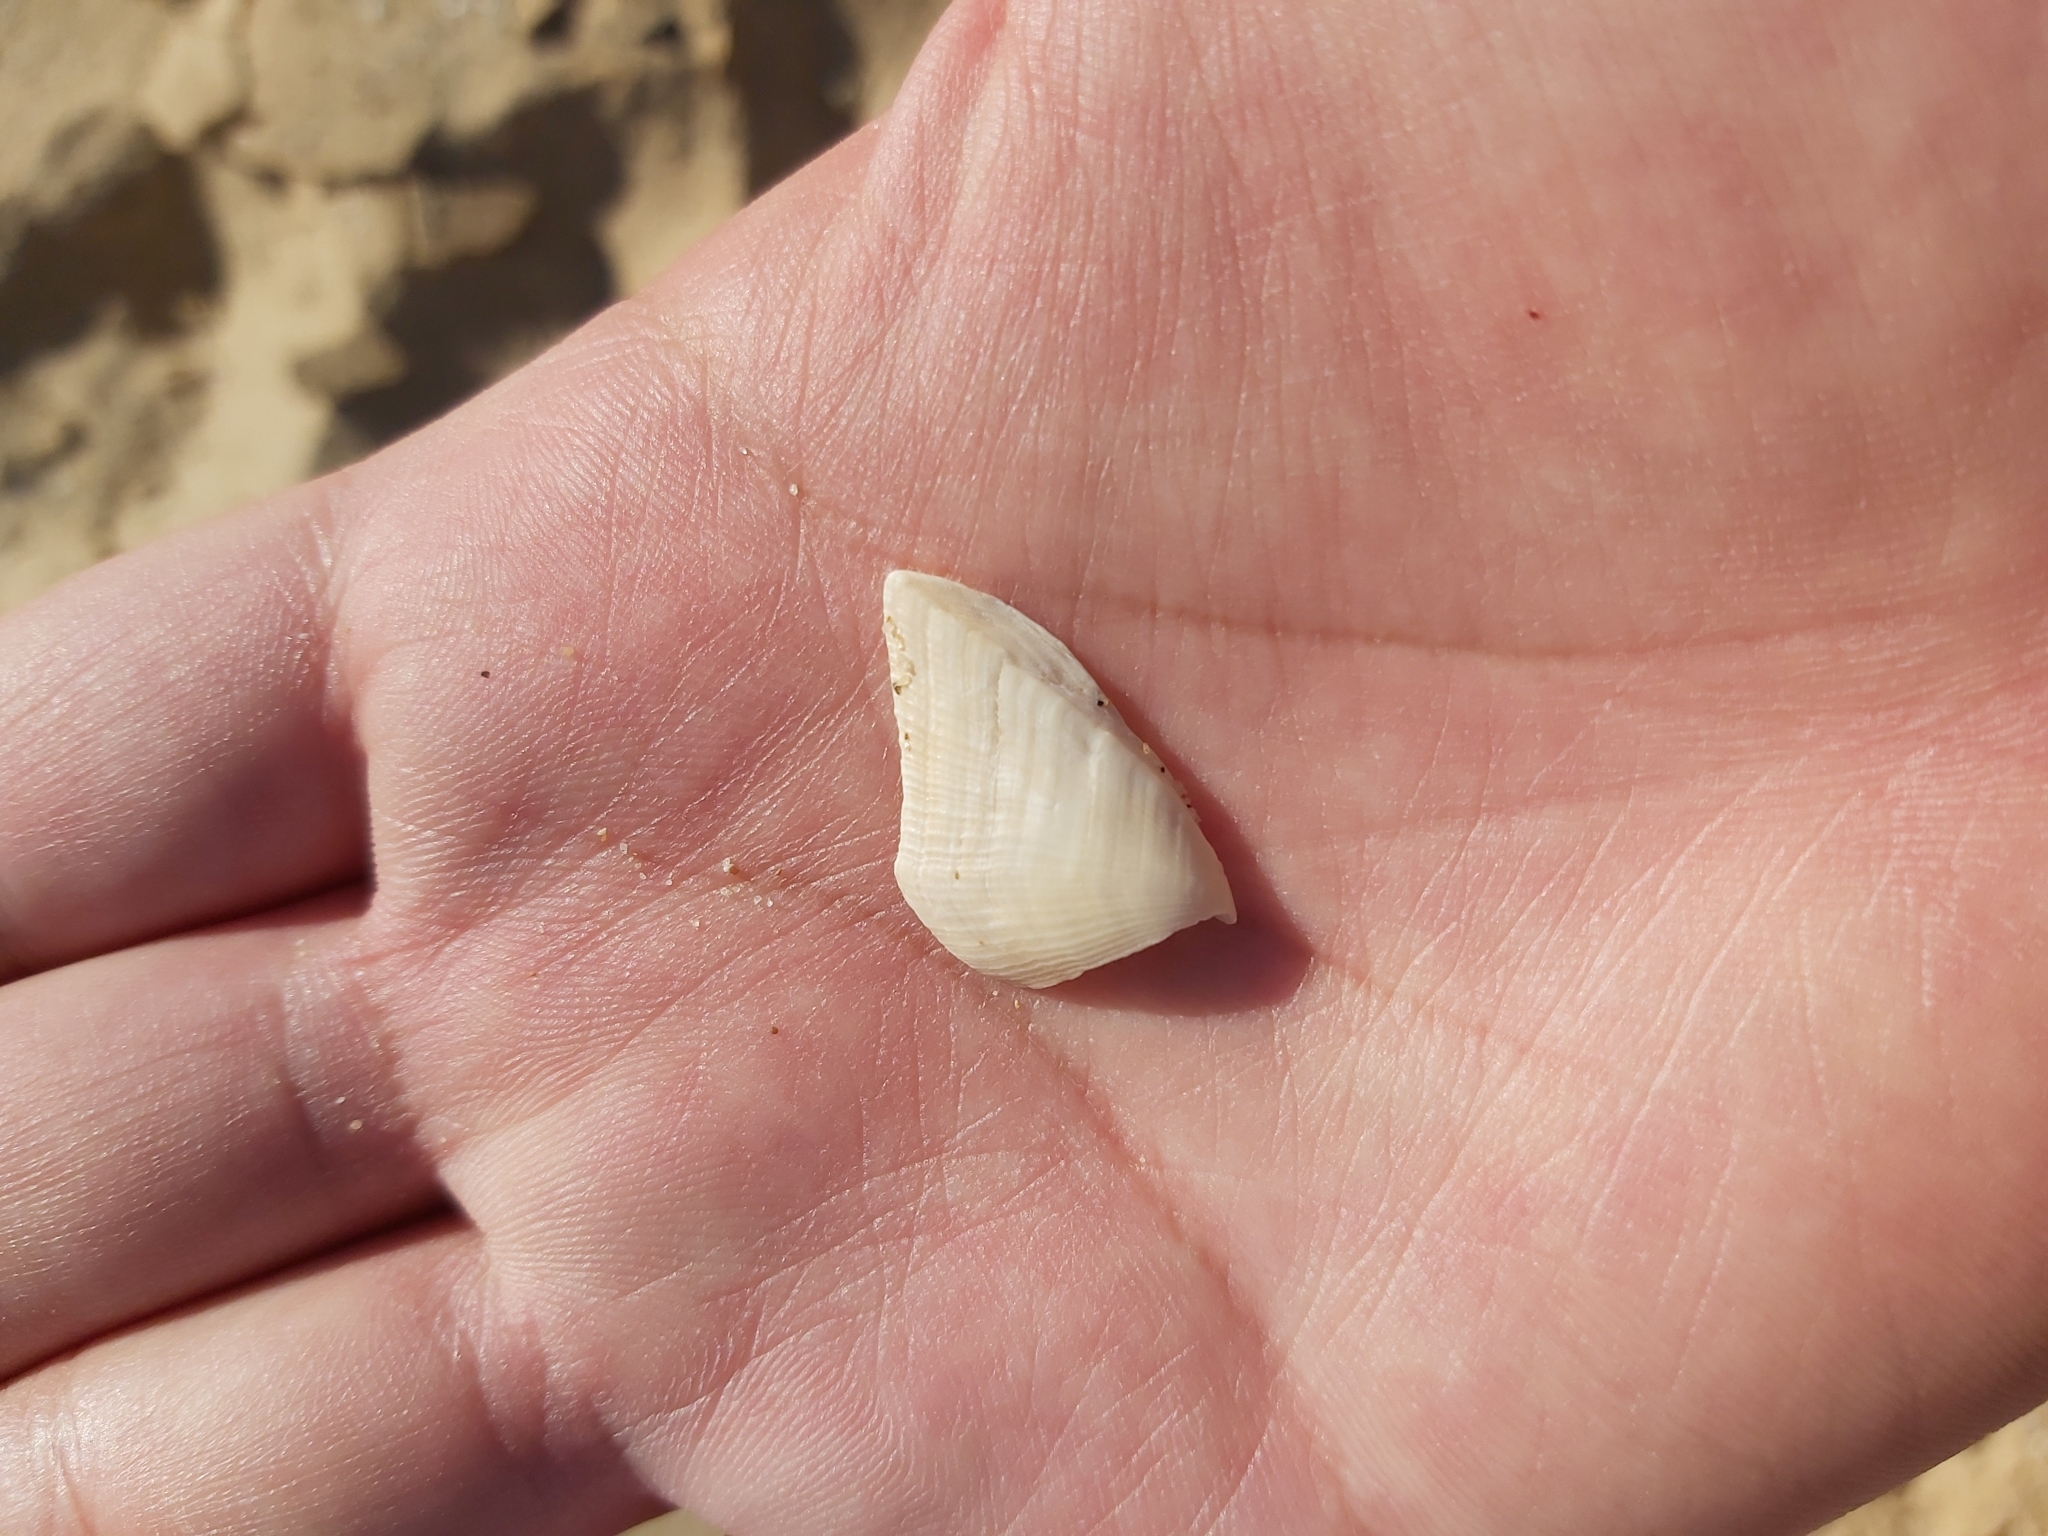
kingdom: Animalia
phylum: Arthropoda
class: Maxillopoda
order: Pedunculata
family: Lepadidae
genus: Lepas
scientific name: Lepas anserifera
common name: Goose barnacle
